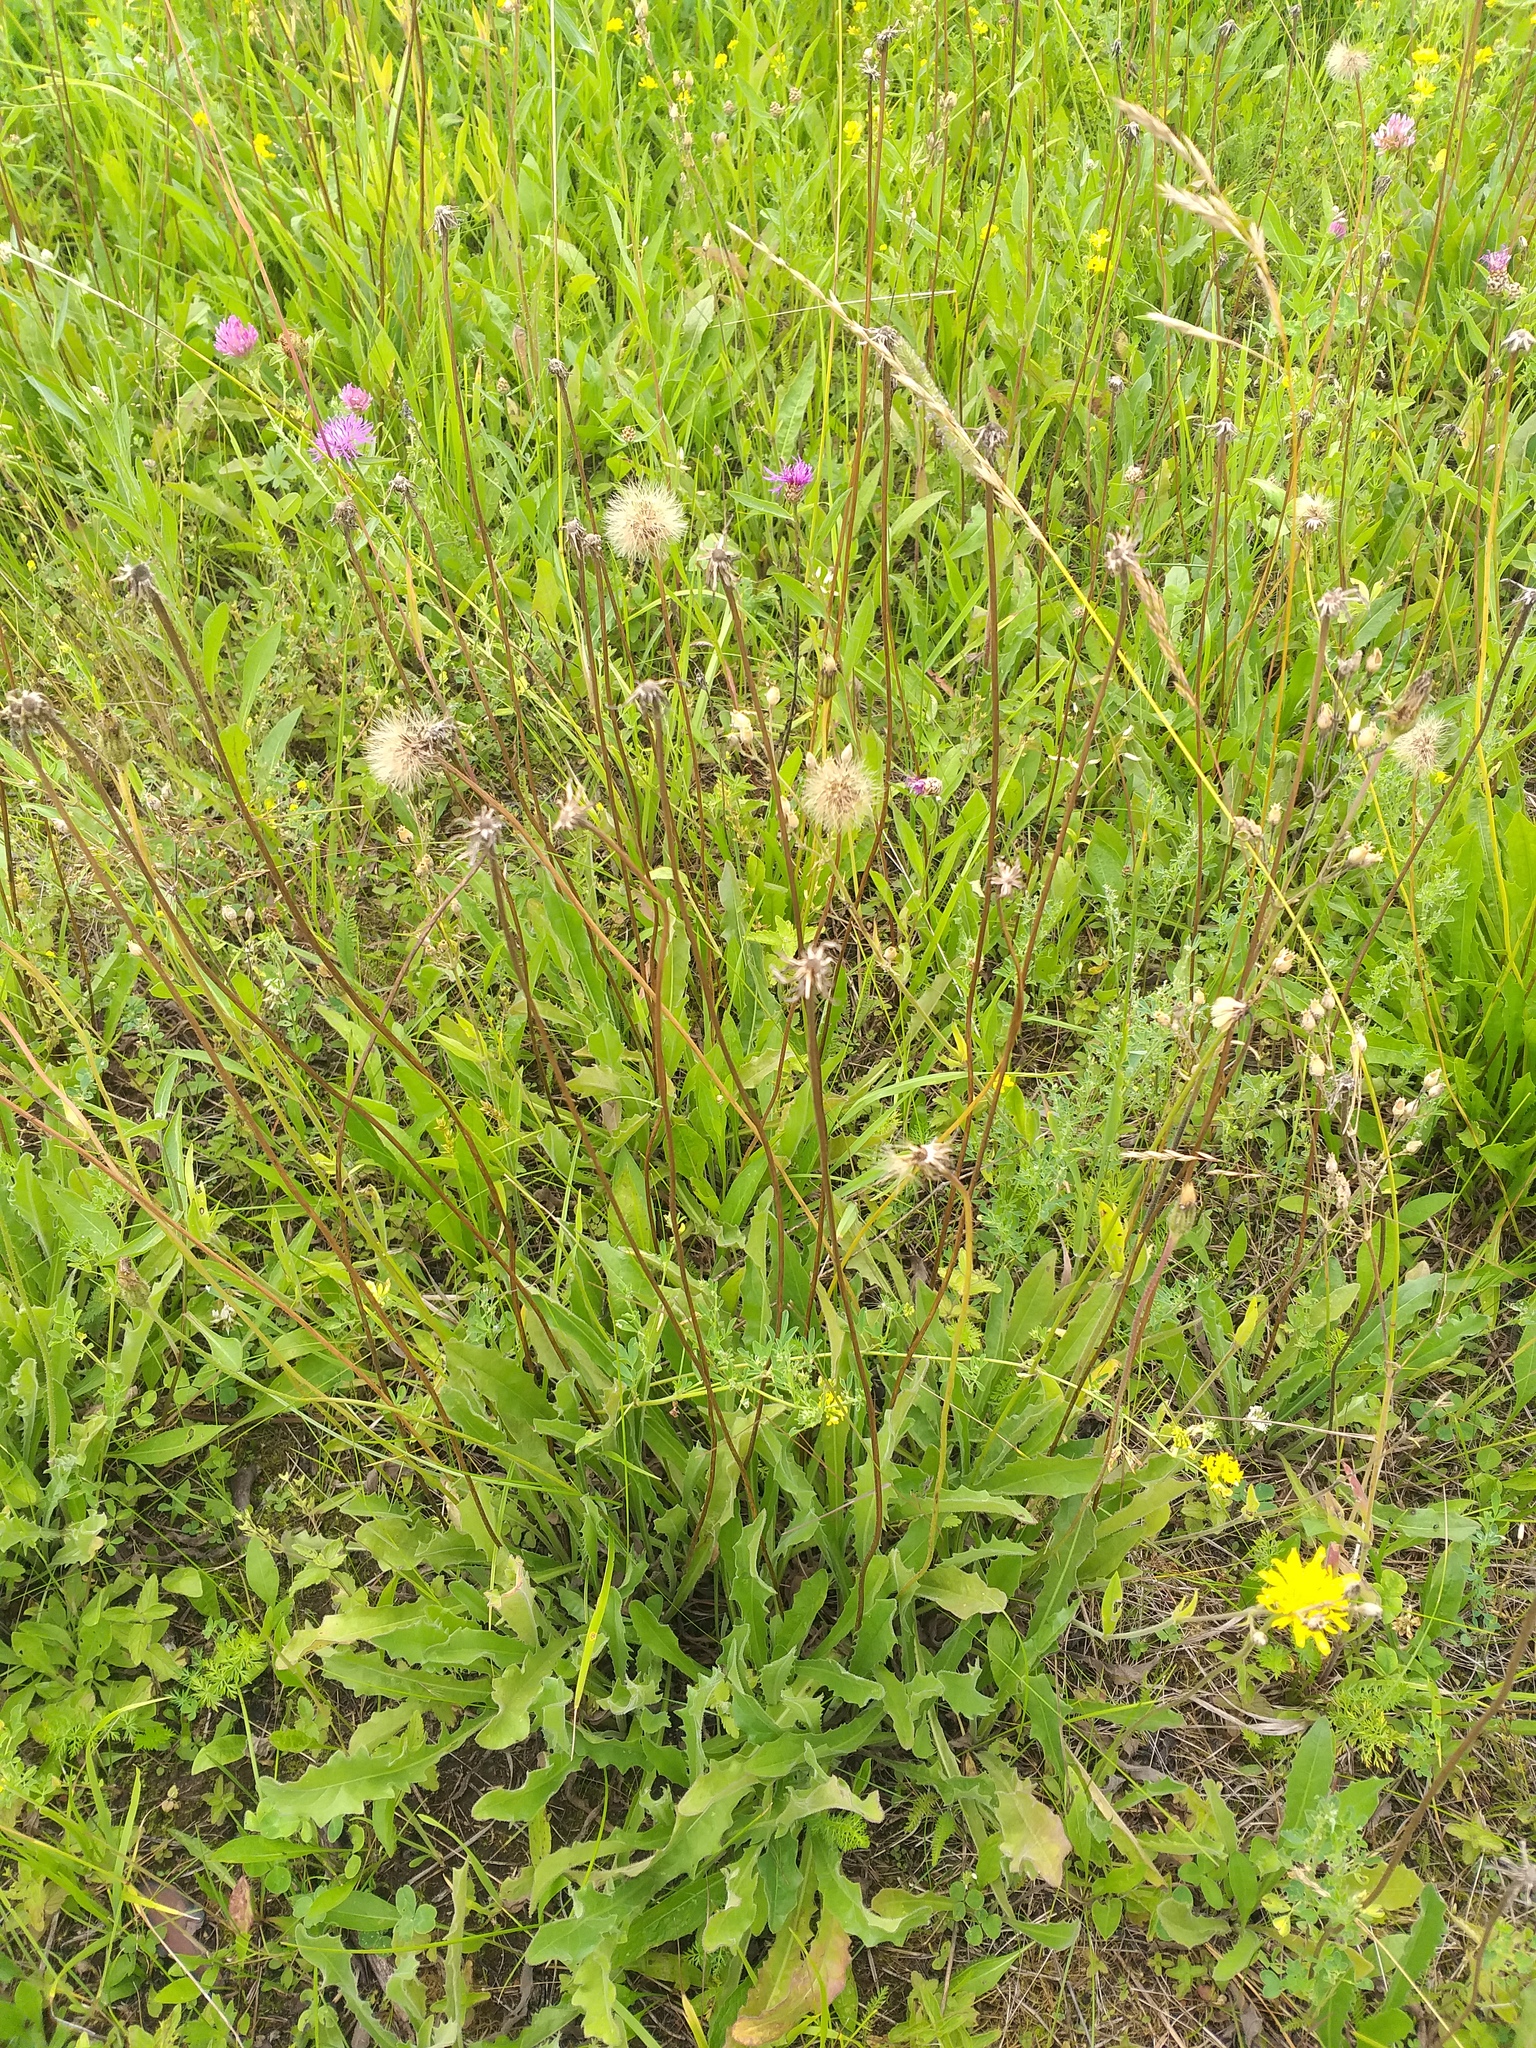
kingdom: Plantae
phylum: Tracheophyta
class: Magnoliopsida
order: Asterales
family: Asteraceae
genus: Leontodon
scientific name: Leontodon hispidus
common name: Rough hawkbit
